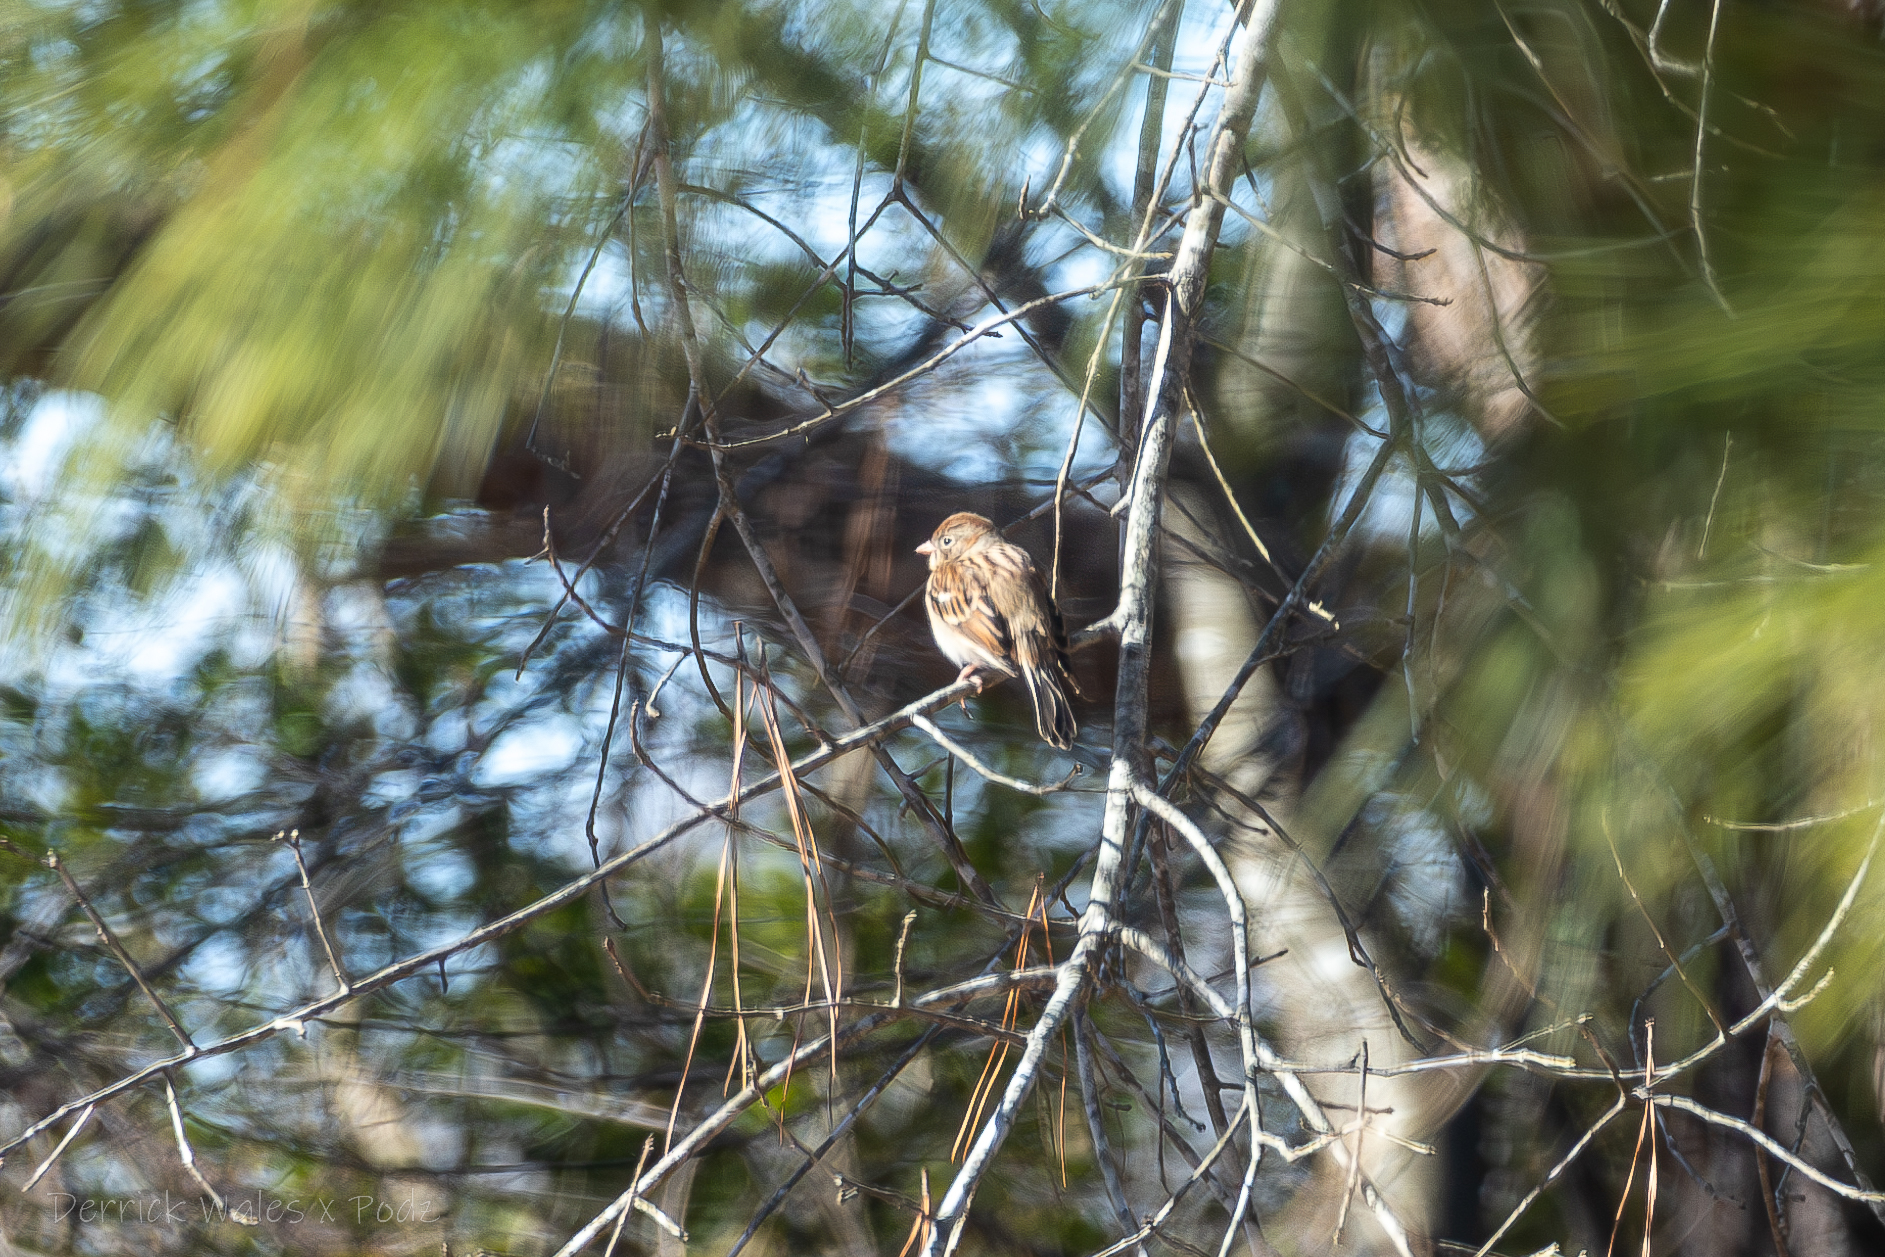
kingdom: Animalia
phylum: Chordata
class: Aves
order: Passeriformes
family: Passerellidae
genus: Spizella
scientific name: Spizella pusilla
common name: Field sparrow
